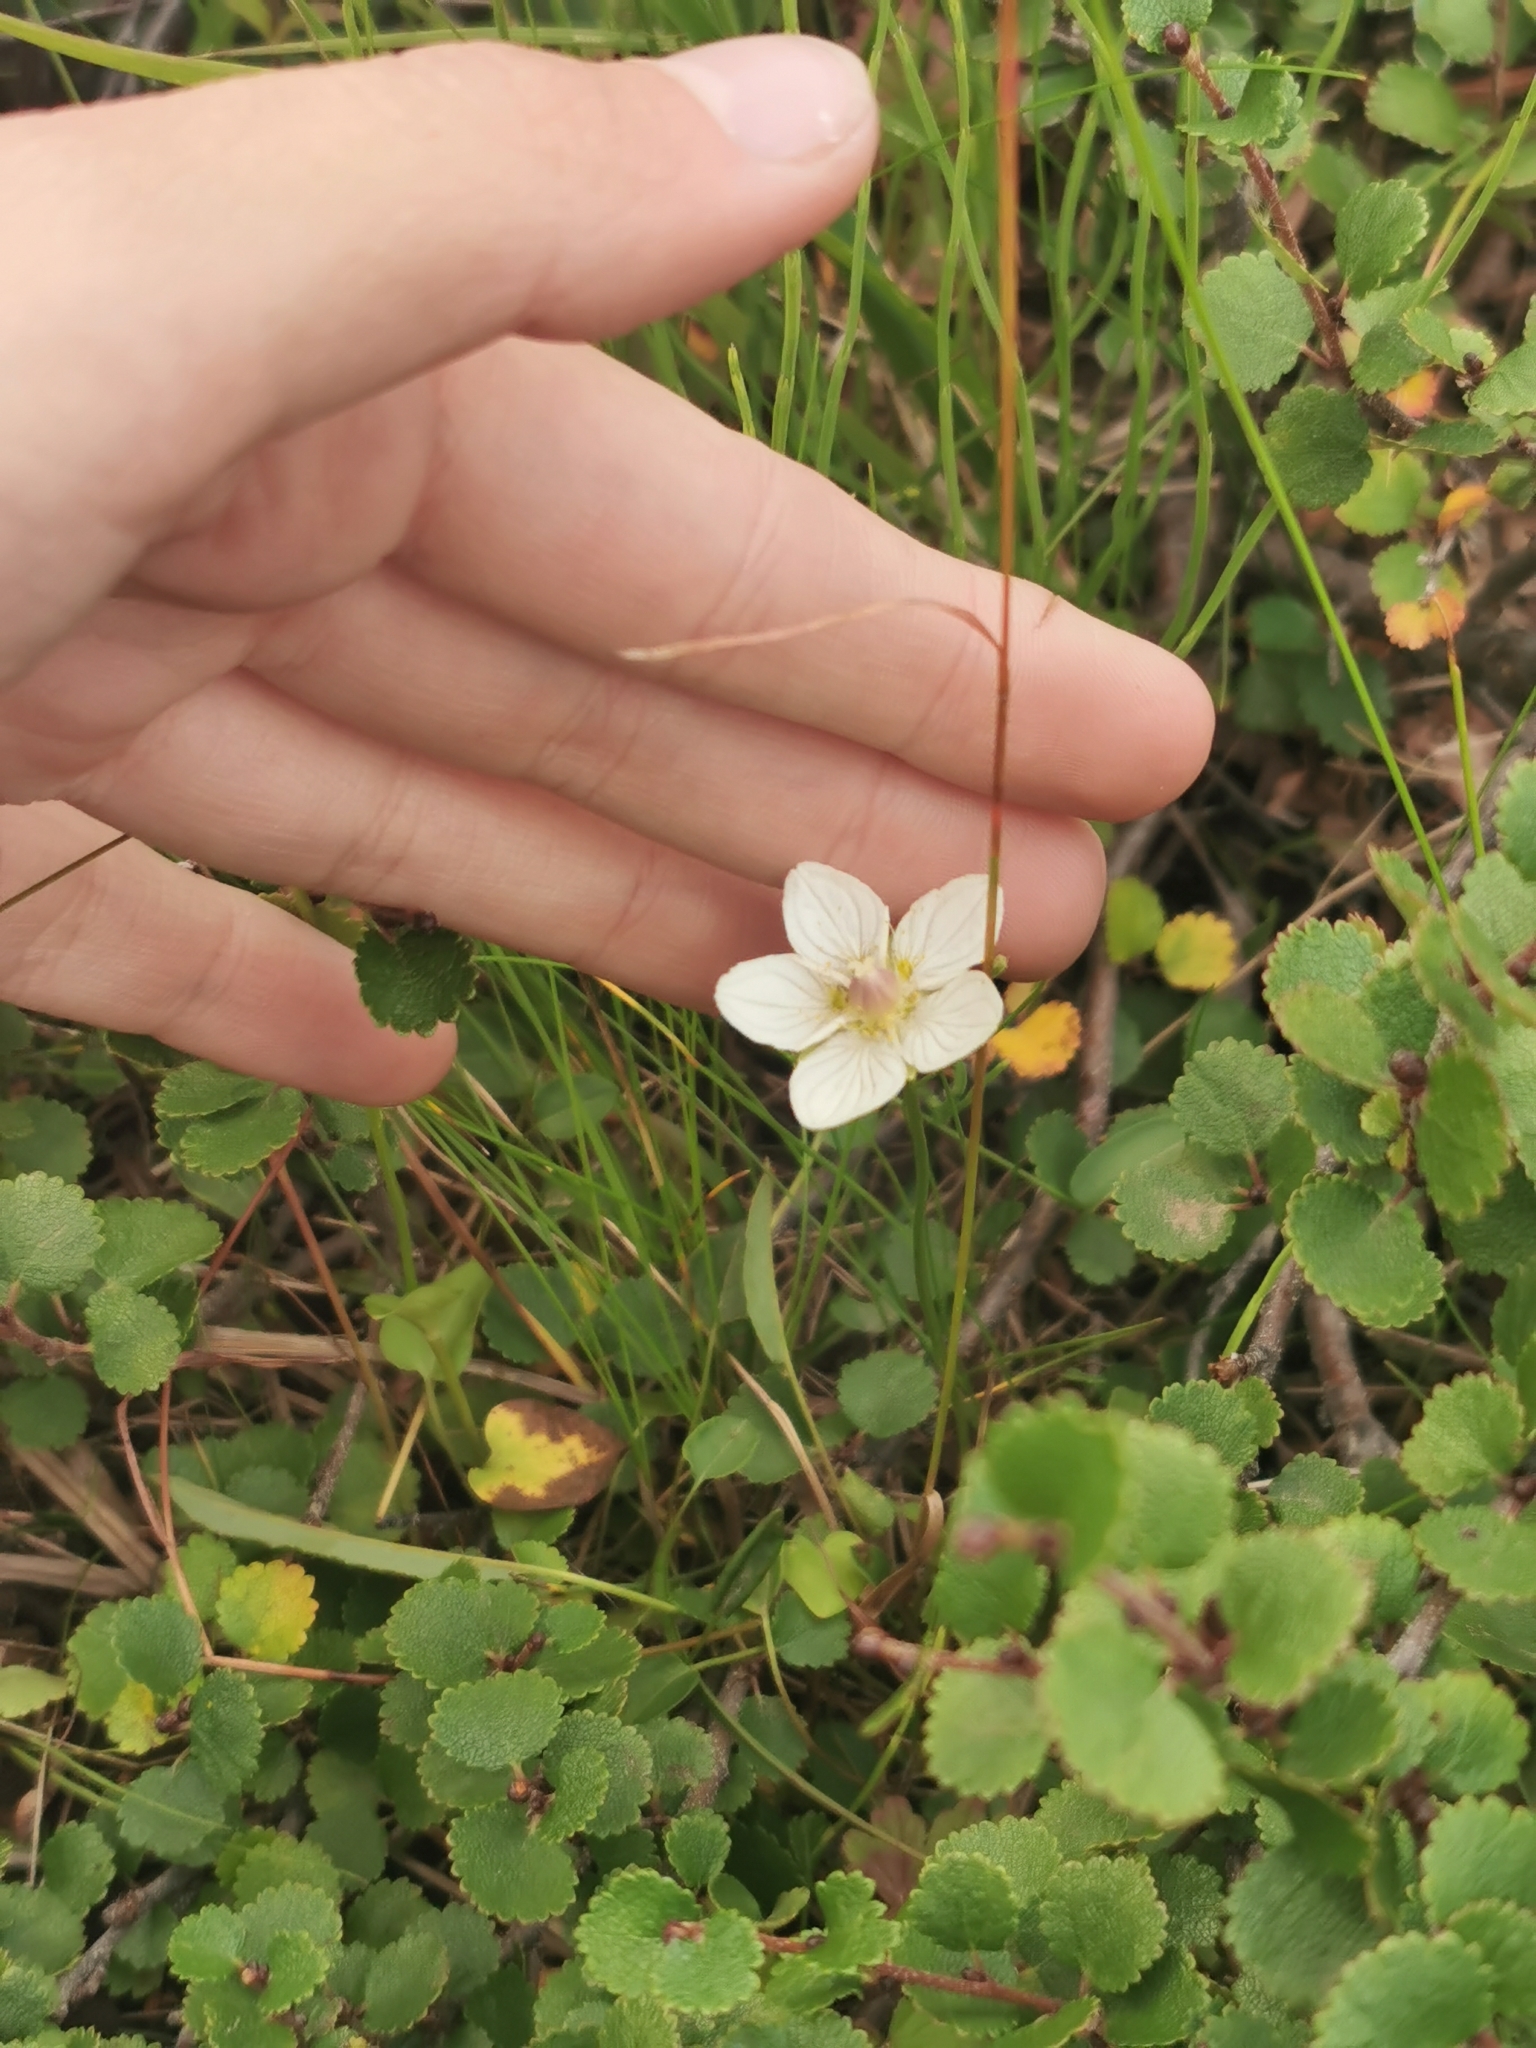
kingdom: Plantae
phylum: Tracheophyta
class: Magnoliopsida
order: Celastrales
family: Parnassiaceae
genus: Parnassia
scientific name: Parnassia palustris
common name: Grass-of-parnassus
